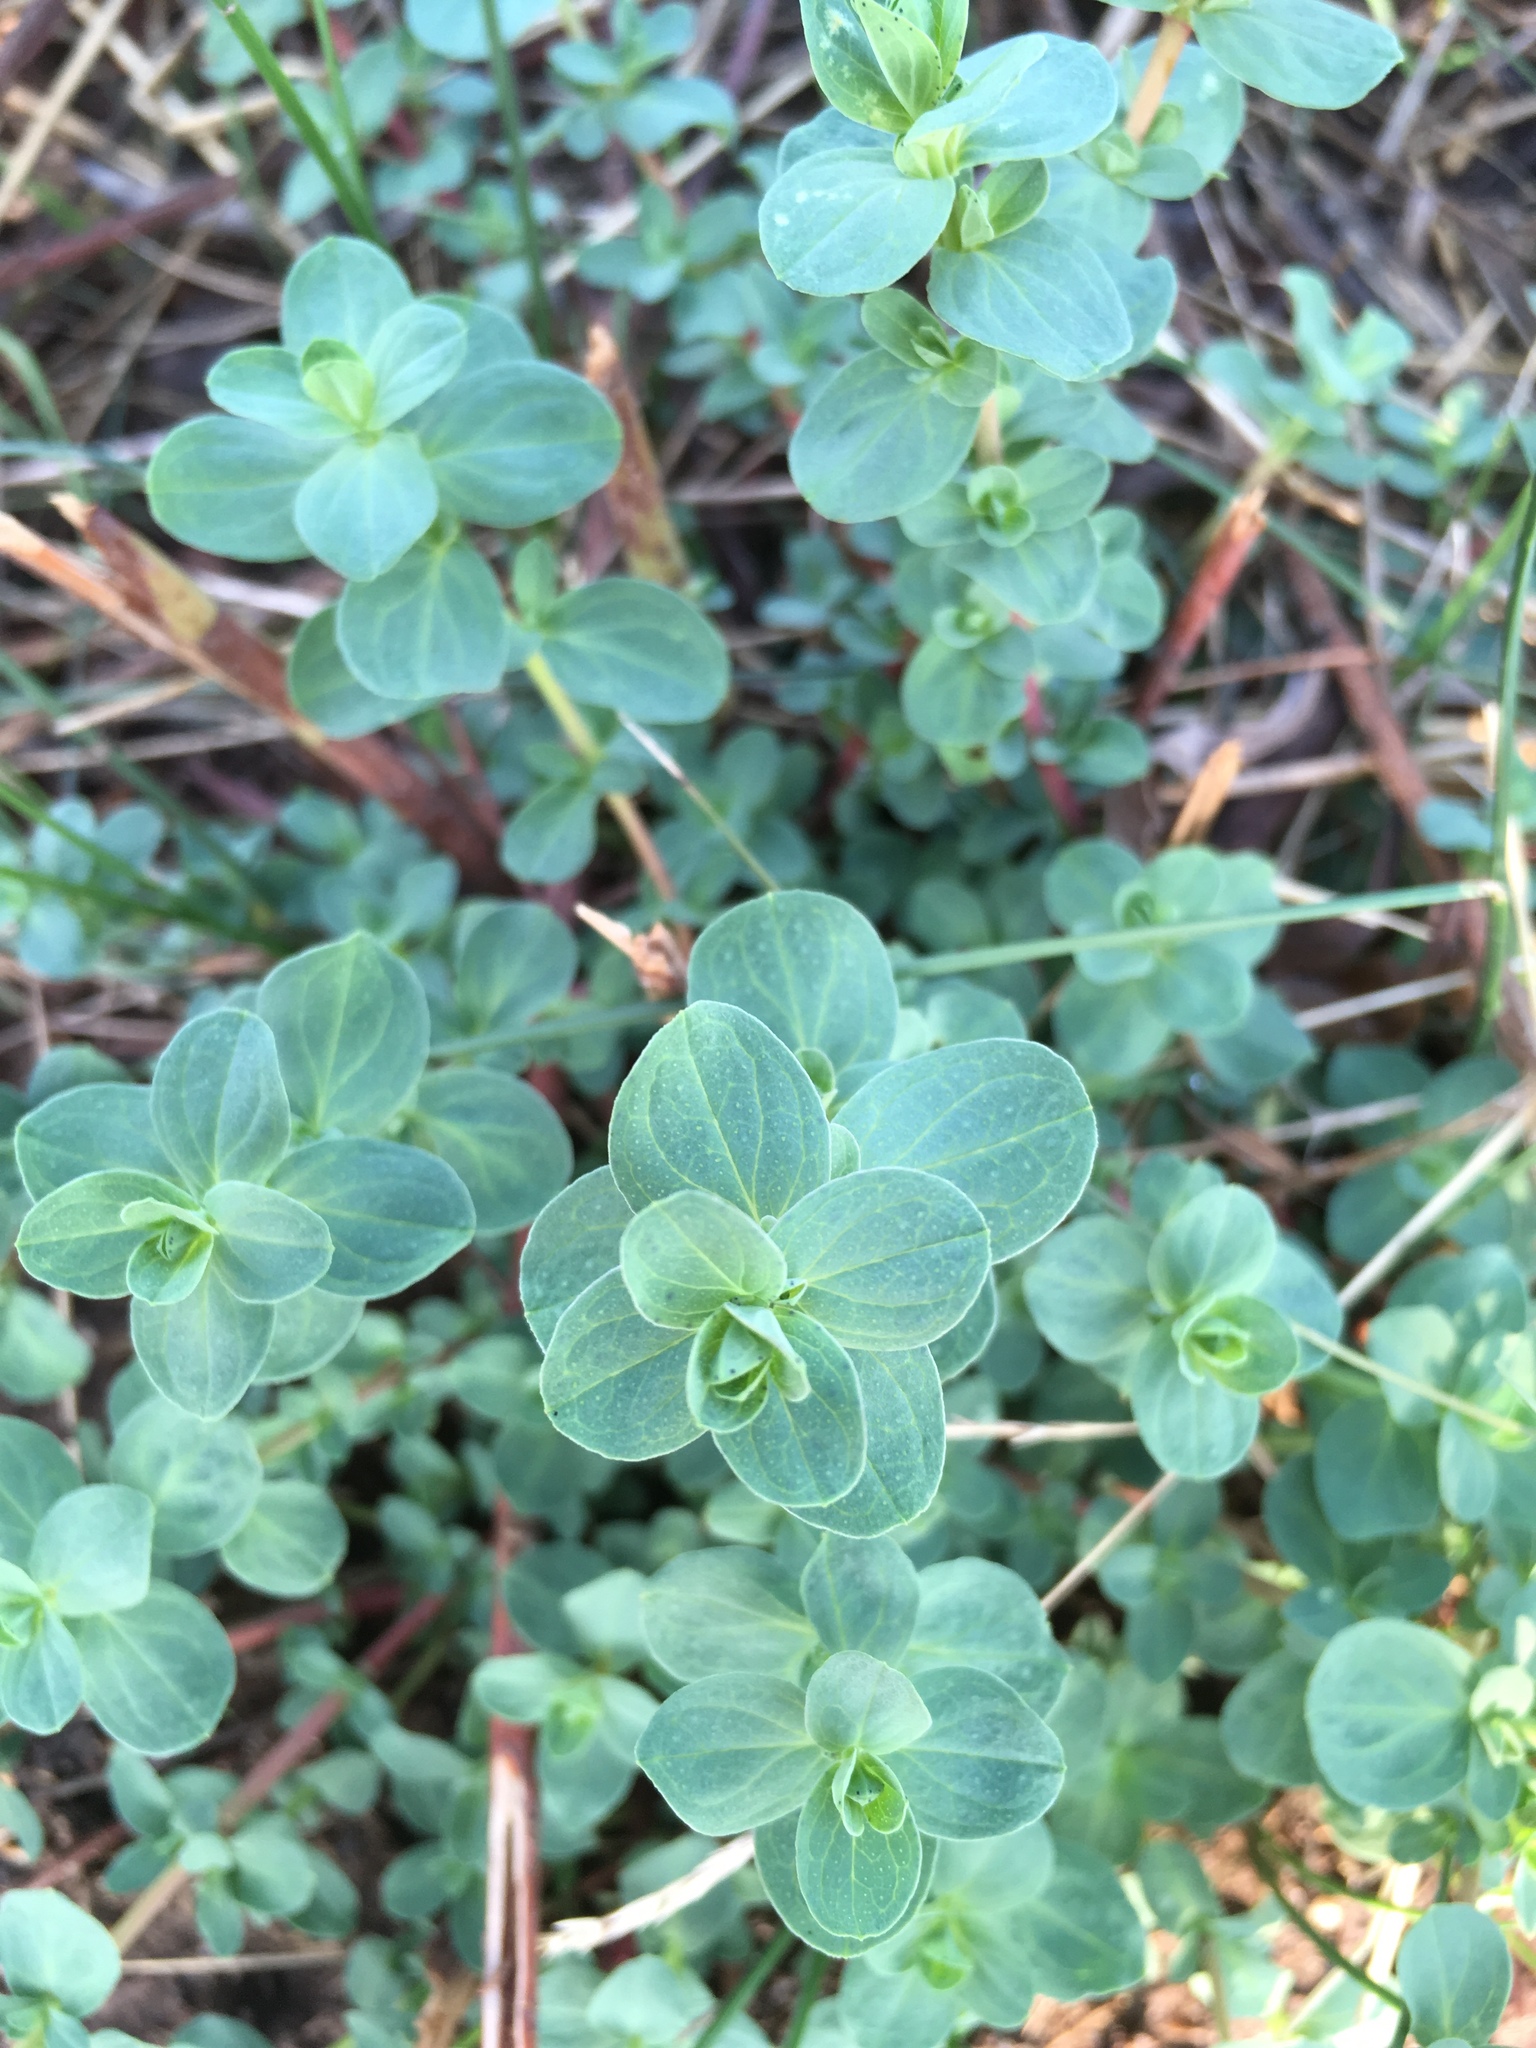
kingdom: Plantae
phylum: Tracheophyta
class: Magnoliopsida
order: Malpighiales
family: Hypericaceae
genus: Hypericum
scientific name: Hypericum perforatum
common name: Common st. johnswort
